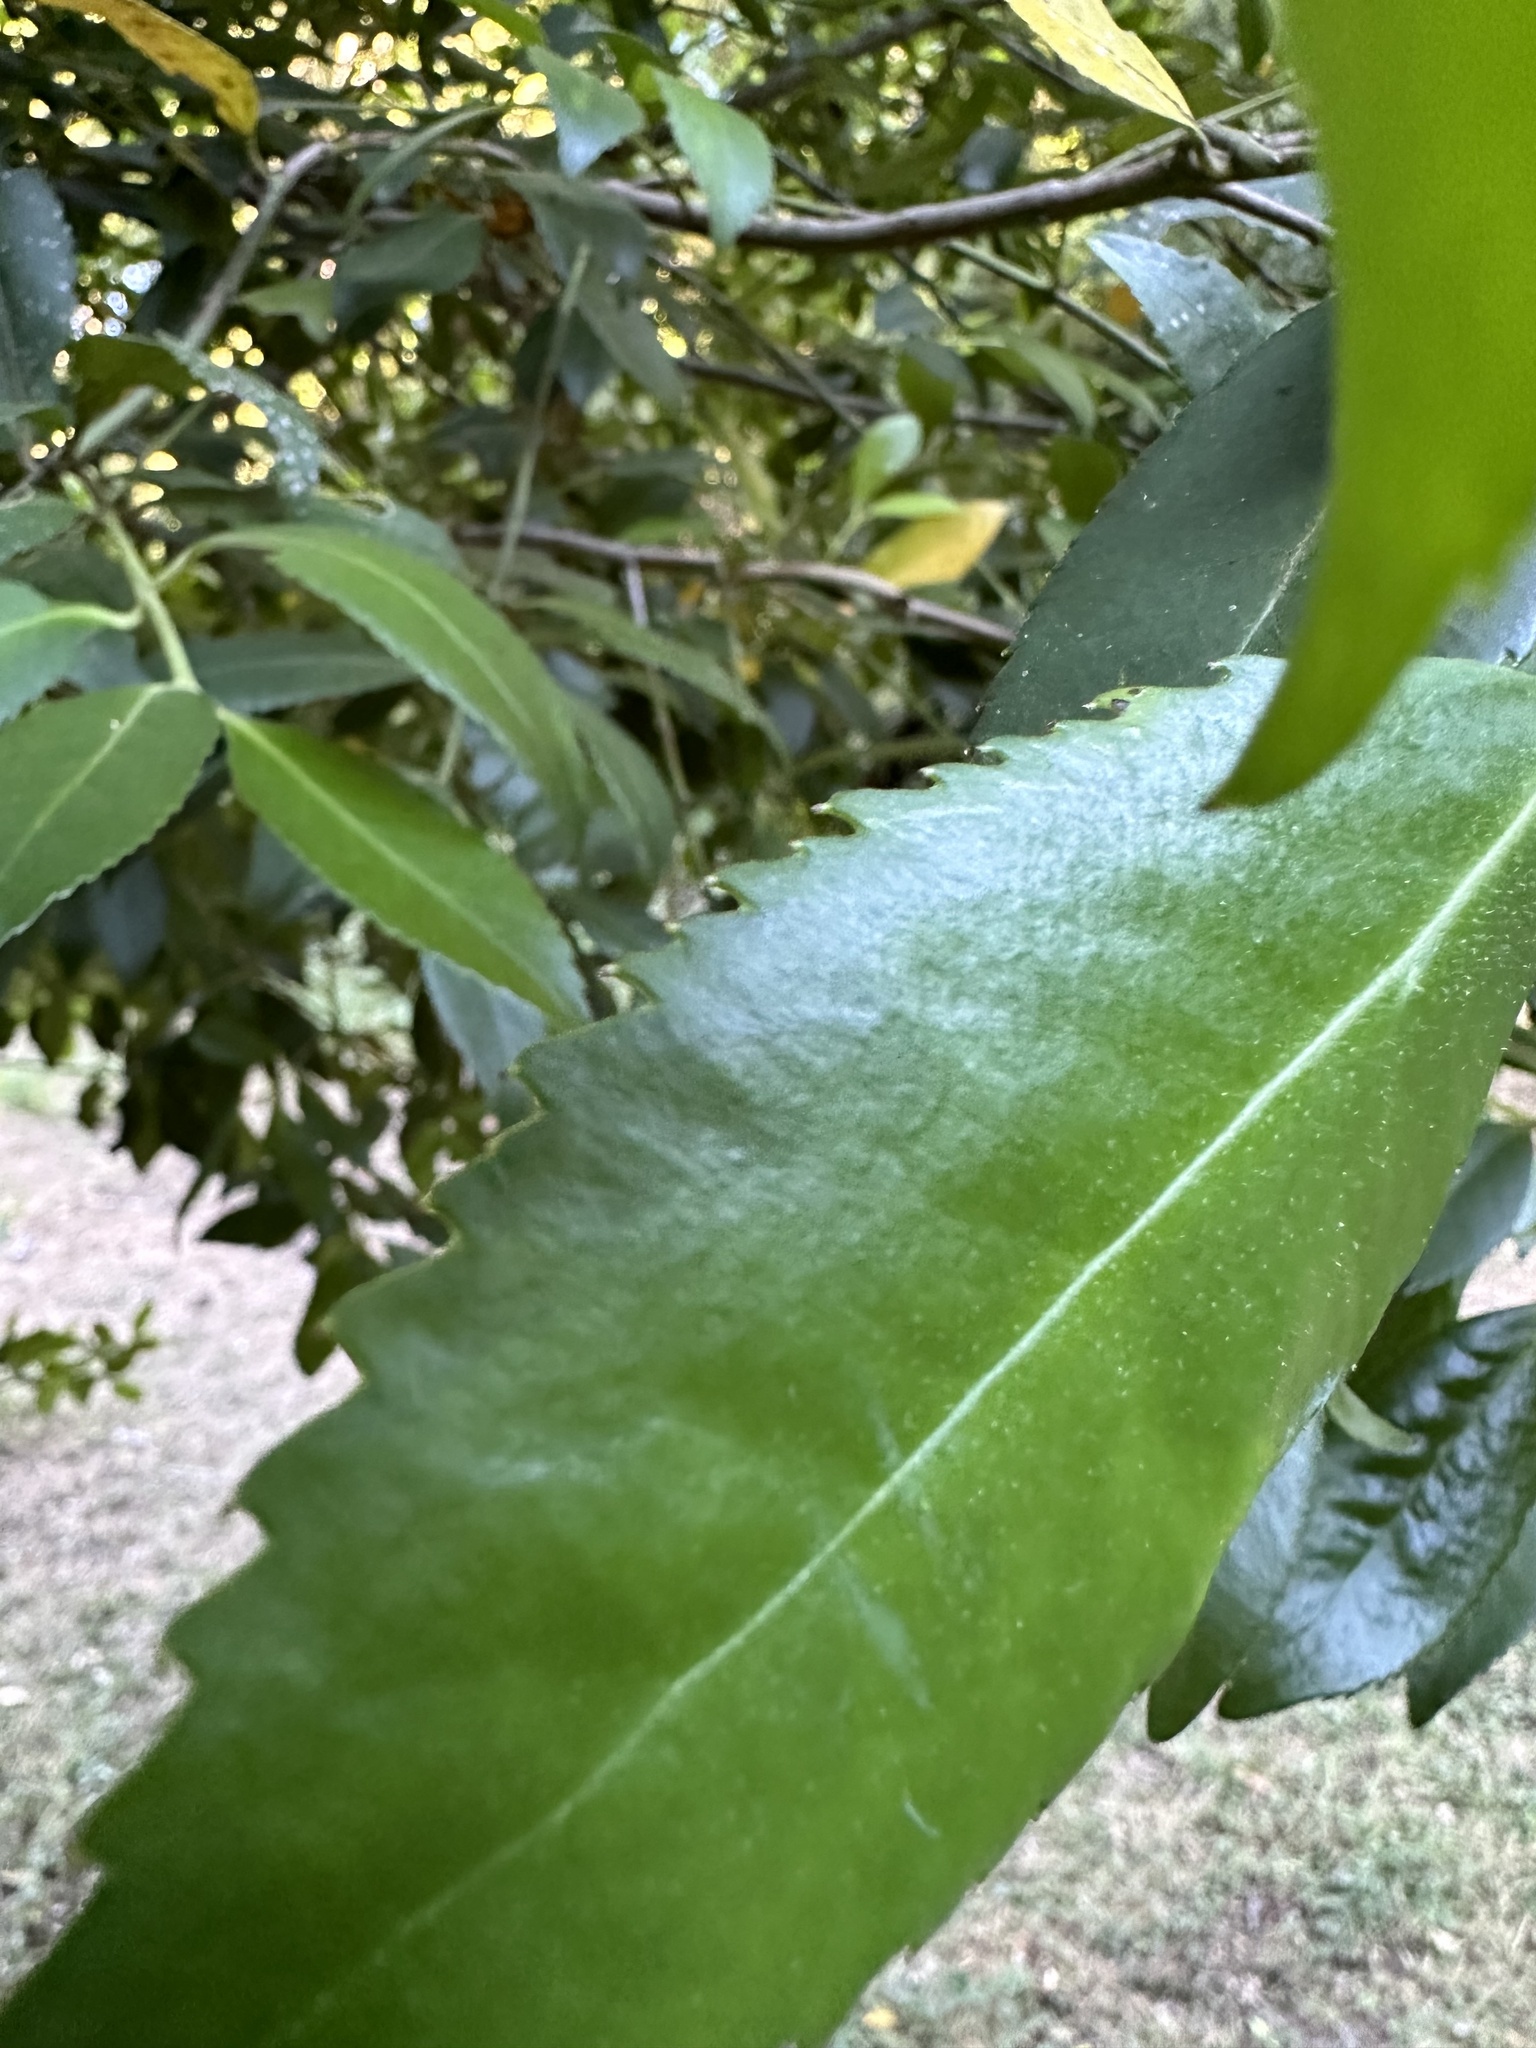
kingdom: Plantae
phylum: Tracheophyta
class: Magnoliopsida
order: Laurales
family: Atherospermataceae
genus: Laureliopsis
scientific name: Laureliopsis philippiana
